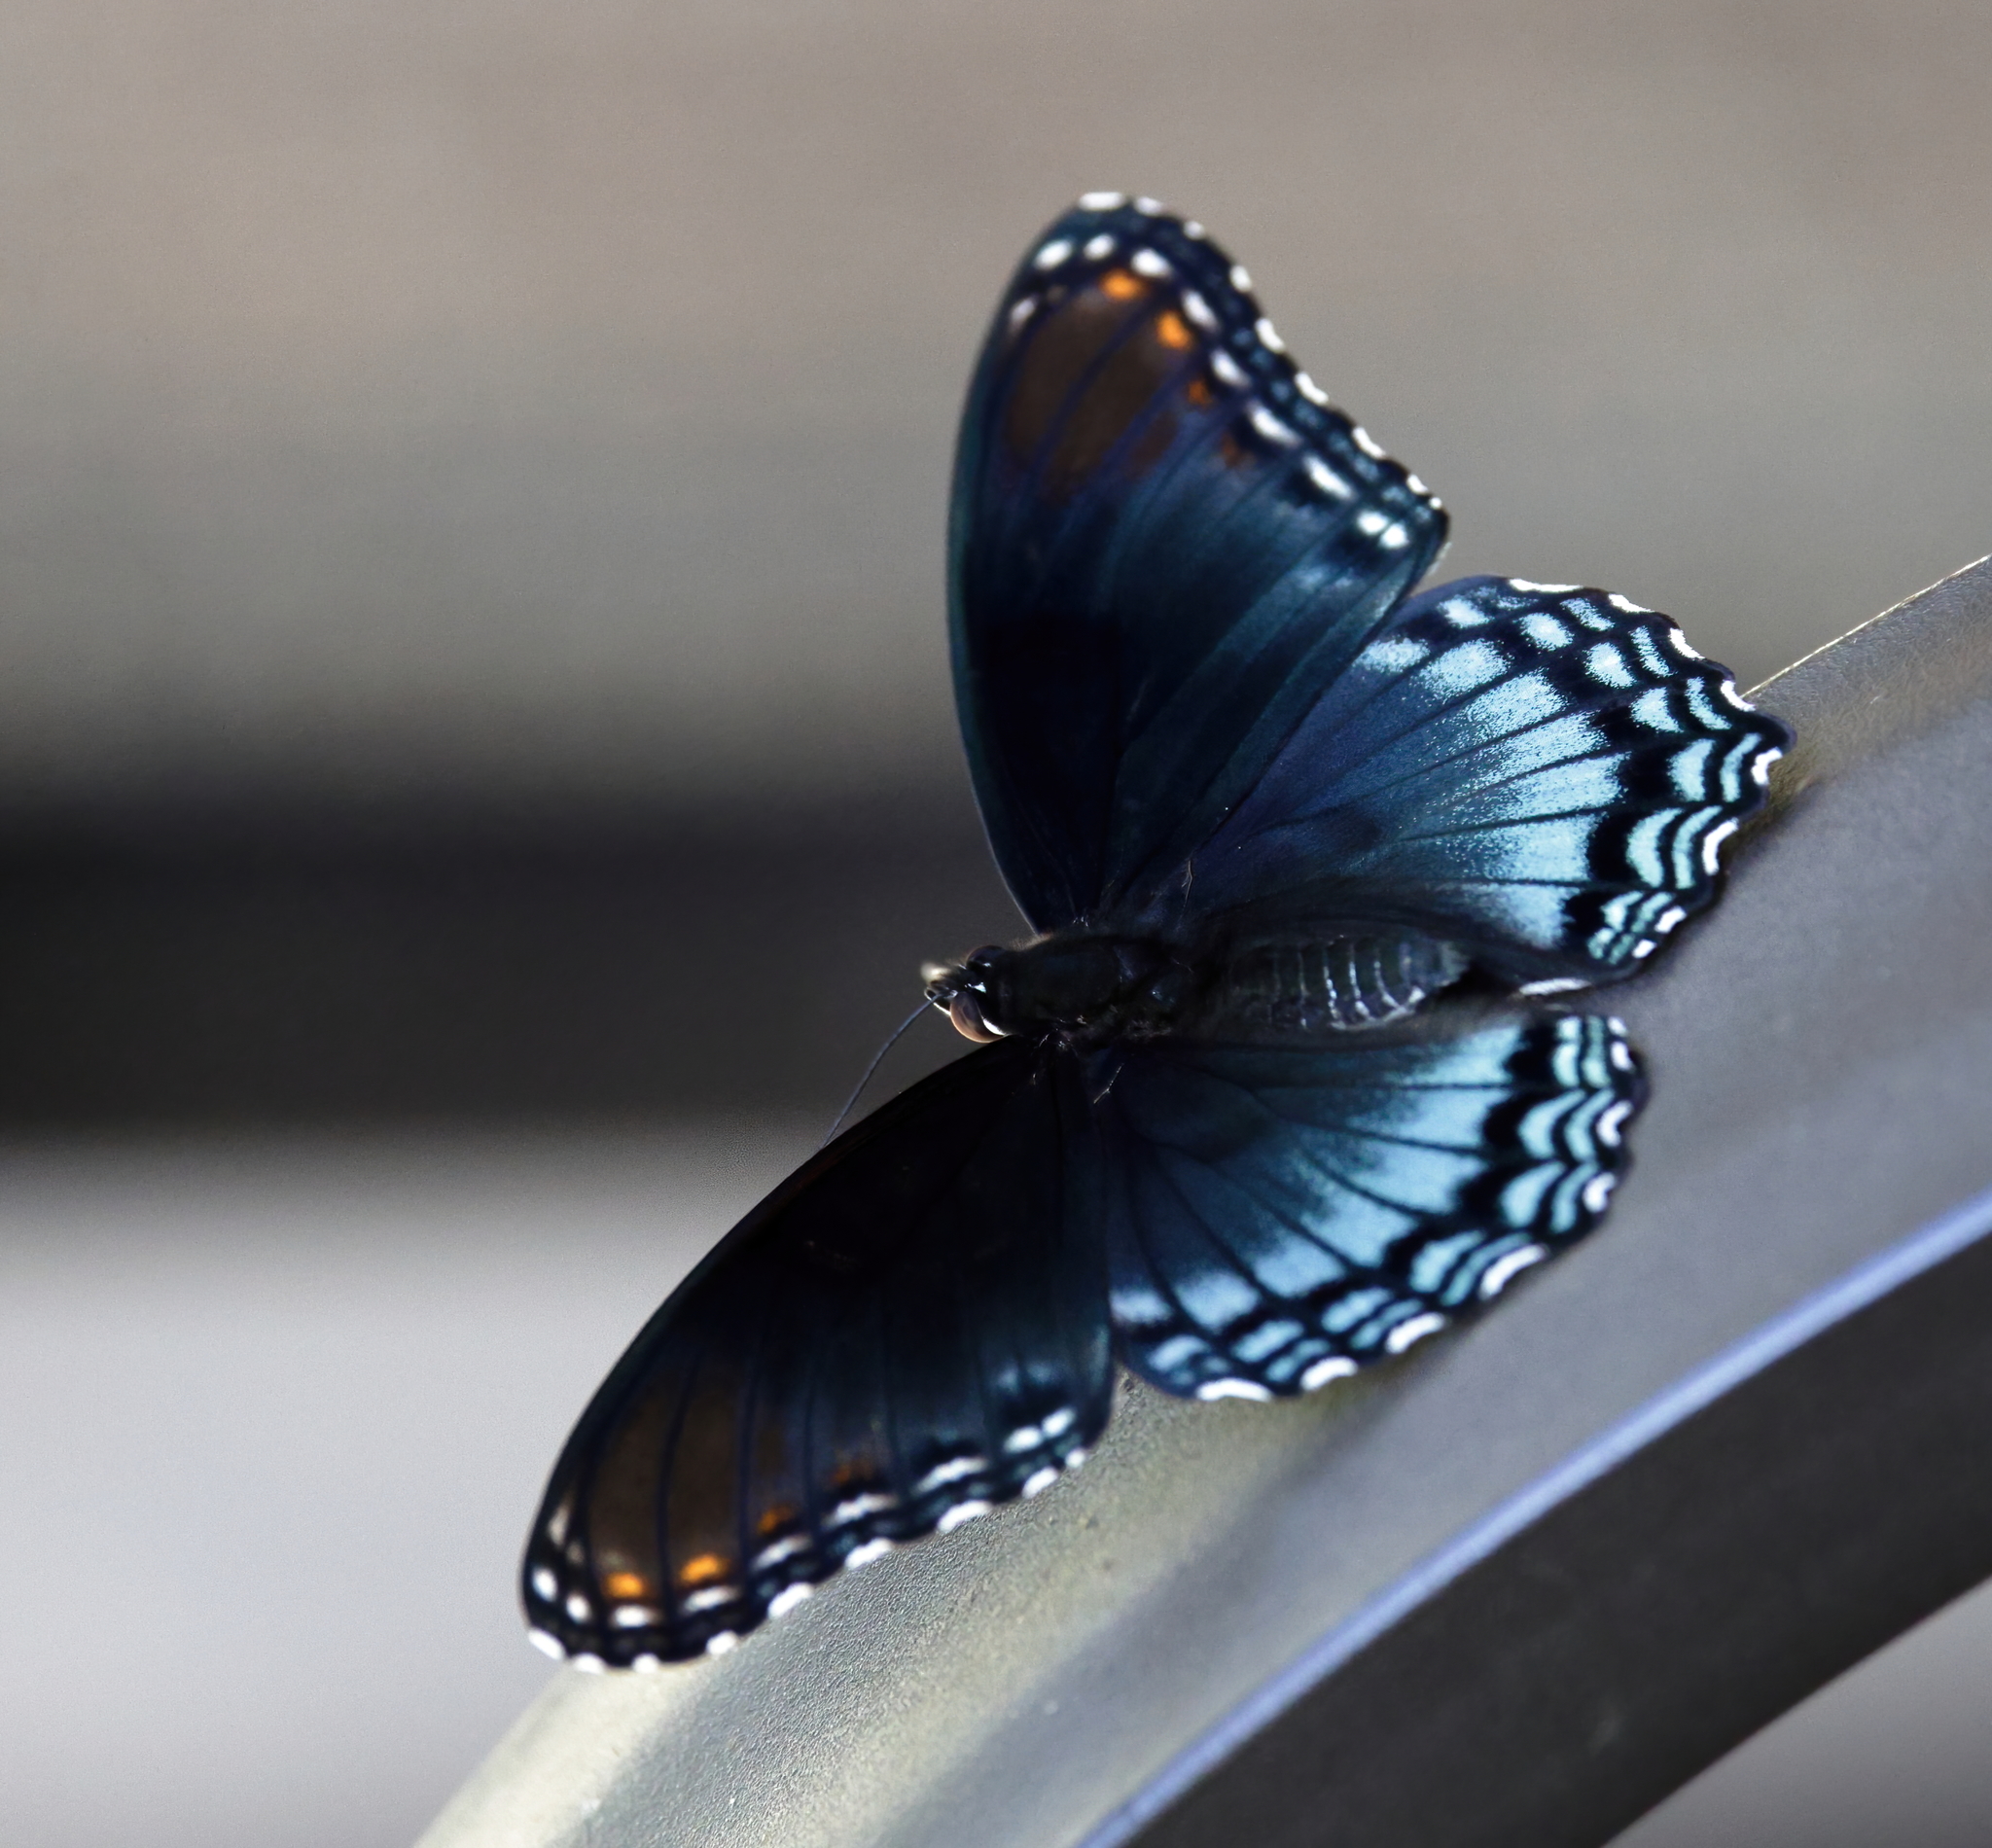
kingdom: Animalia
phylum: Arthropoda
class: Insecta
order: Lepidoptera
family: Nymphalidae
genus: Limenitis
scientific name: Limenitis astyanax
